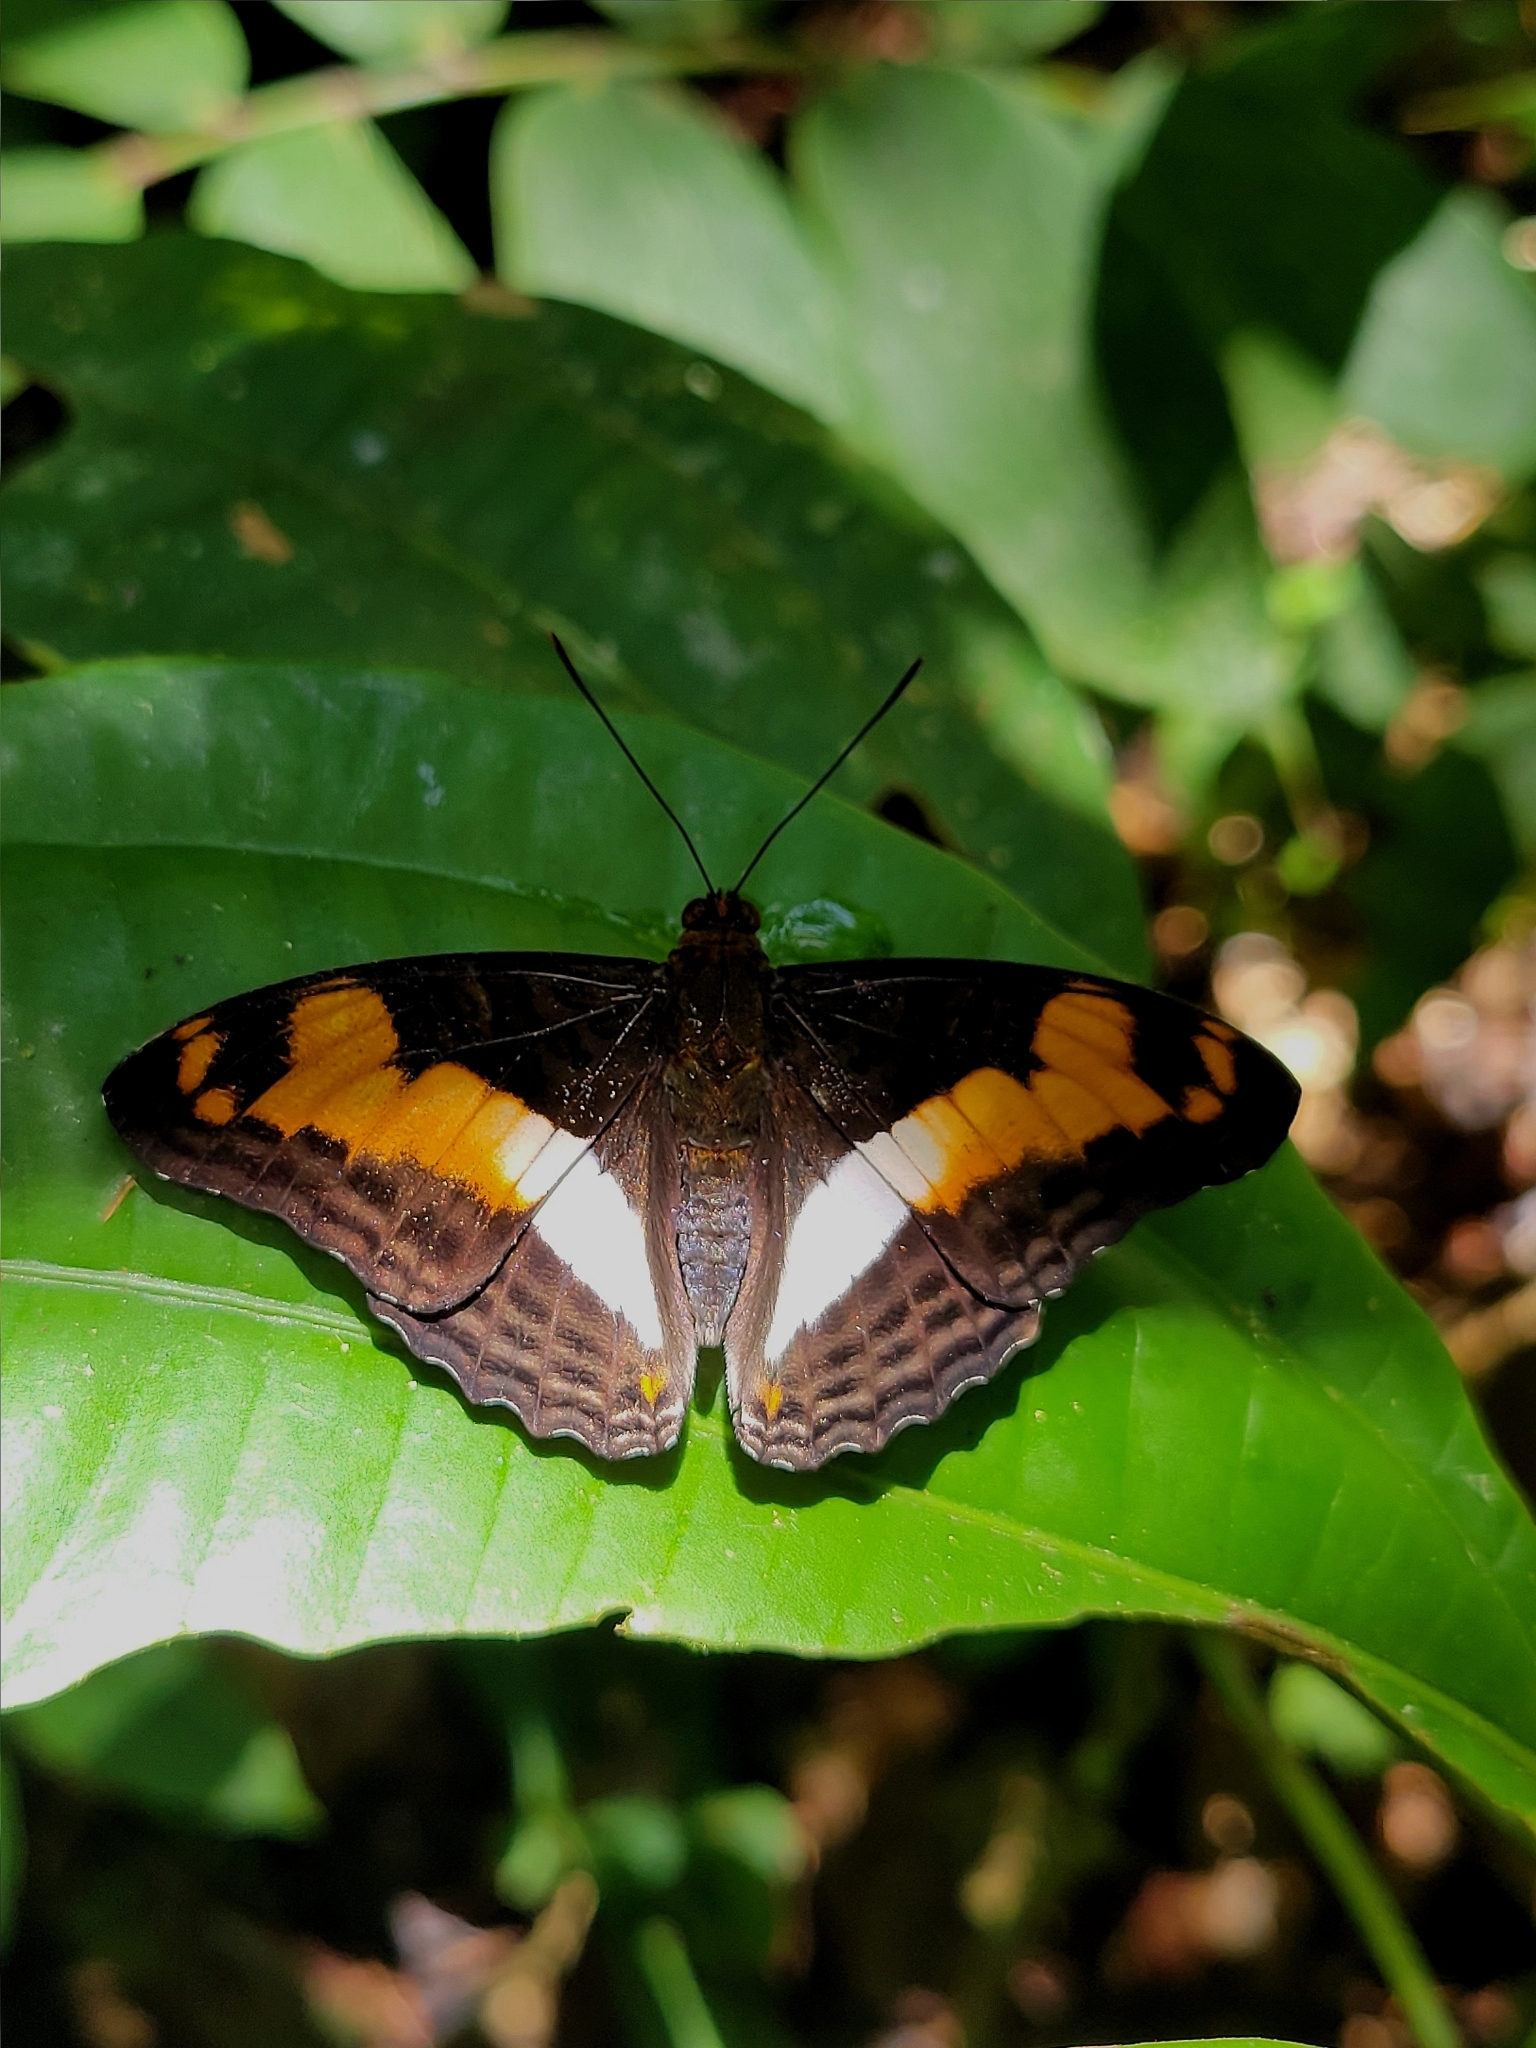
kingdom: Animalia
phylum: Arthropoda
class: Insecta
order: Lepidoptera
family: Nymphalidae
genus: Limenitis
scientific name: Limenitis Adelpha erotia
